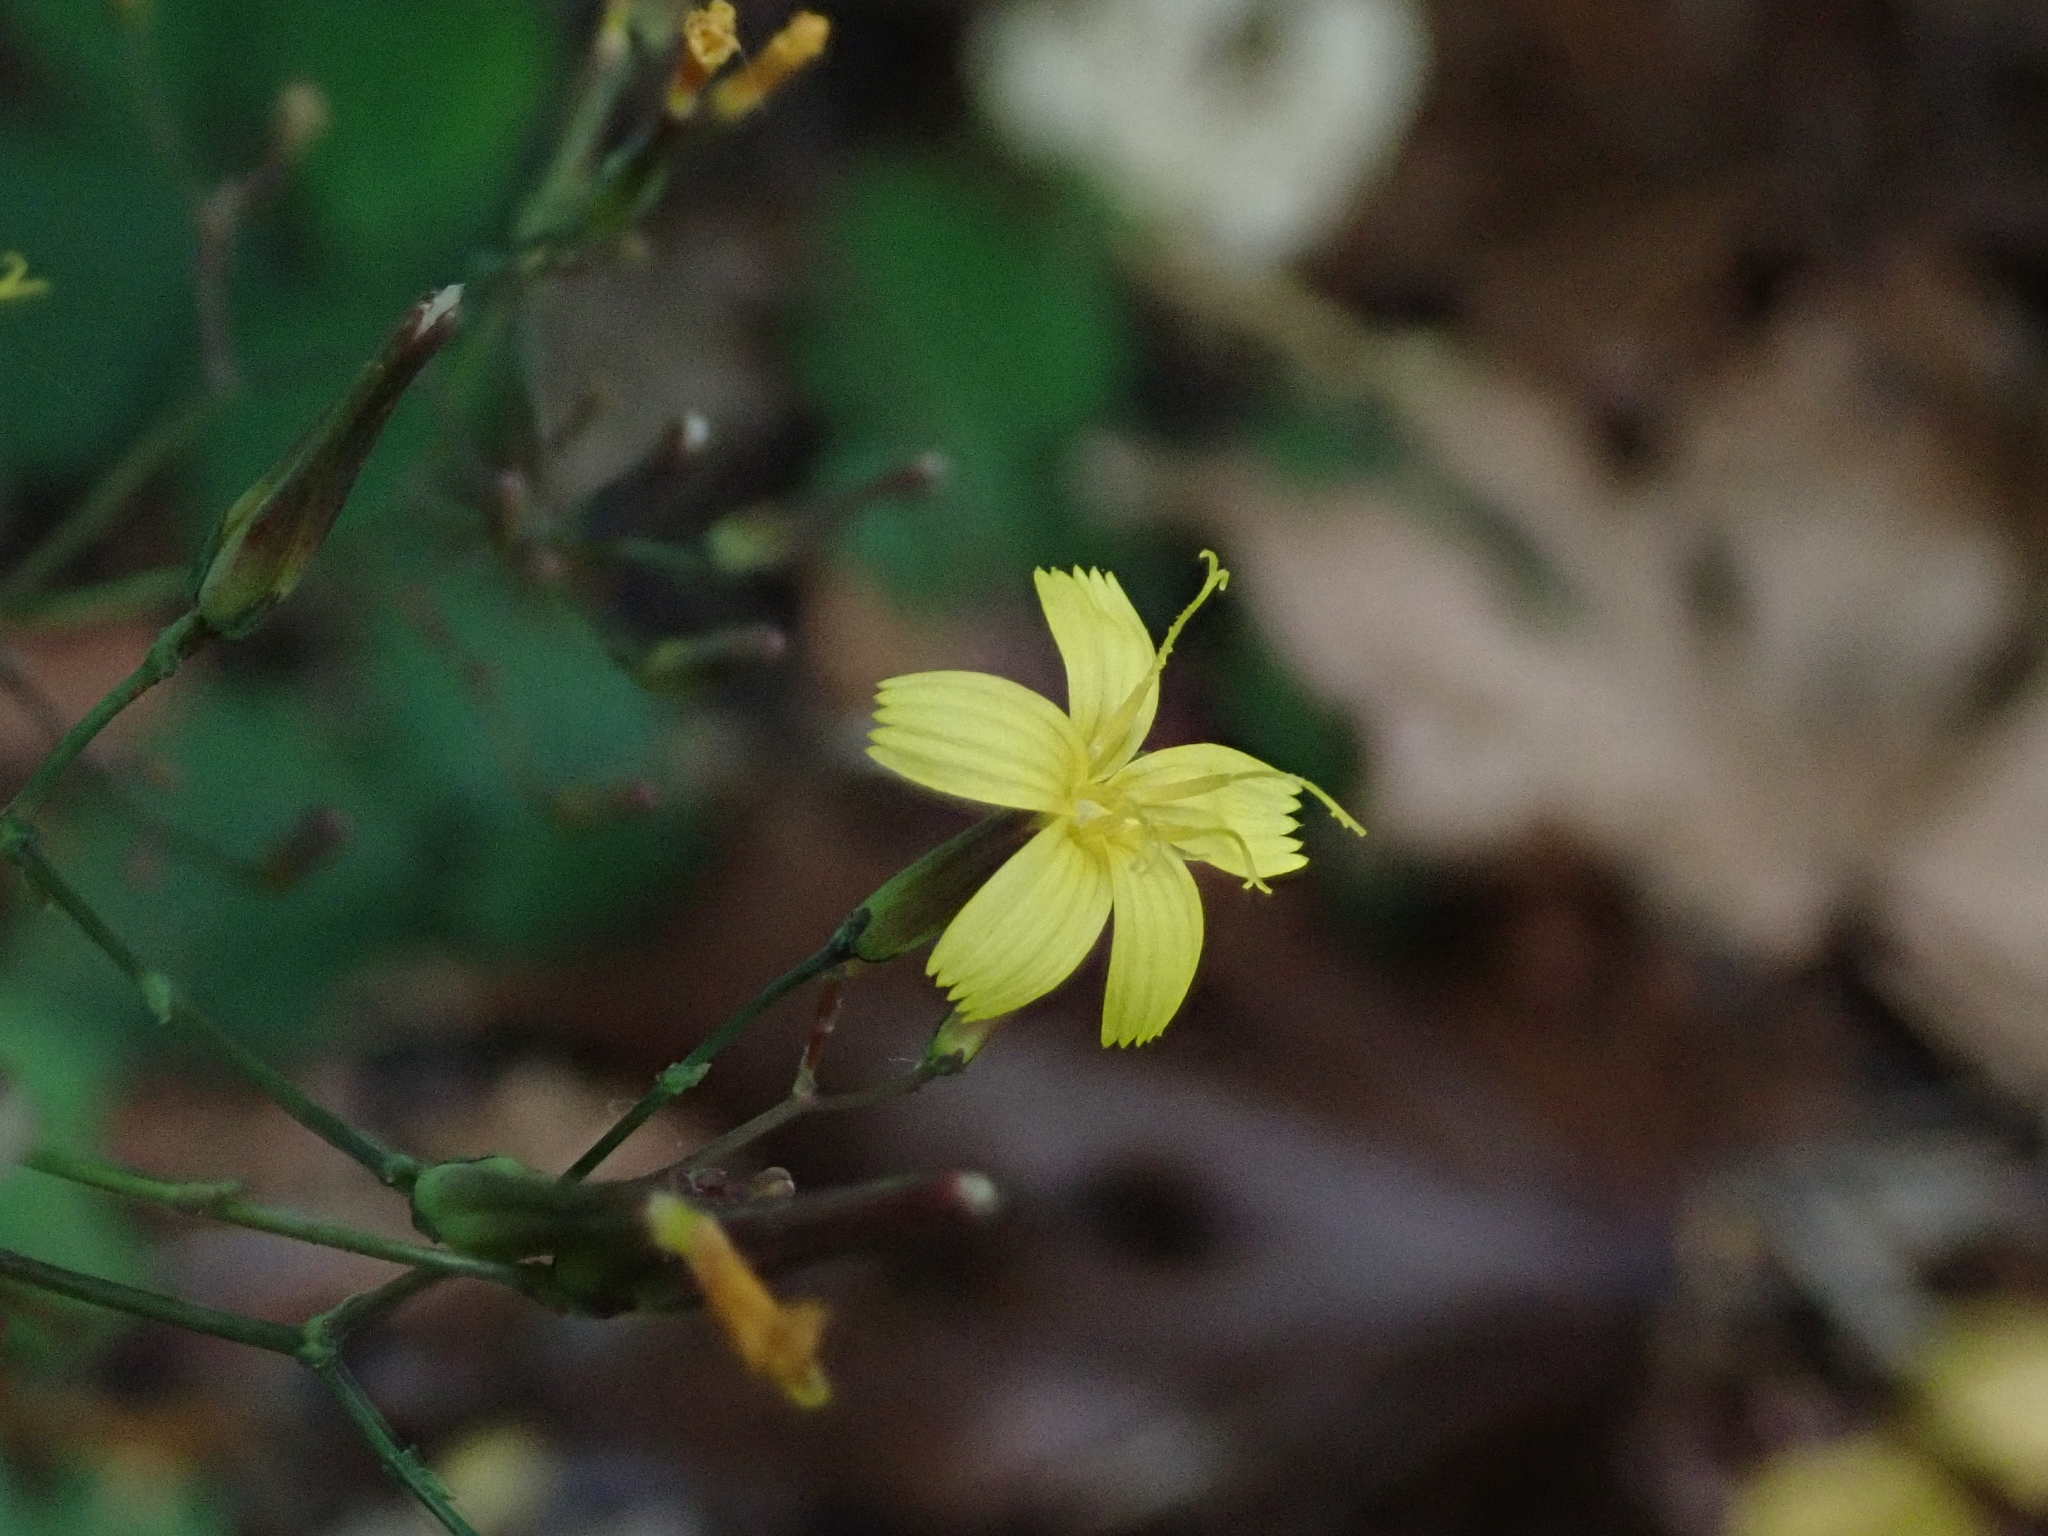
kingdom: Plantae
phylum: Tracheophyta
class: Magnoliopsida
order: Asterales
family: Asteraceae
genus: Mycelis
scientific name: Mycelis muralis
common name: Wall lettuce
